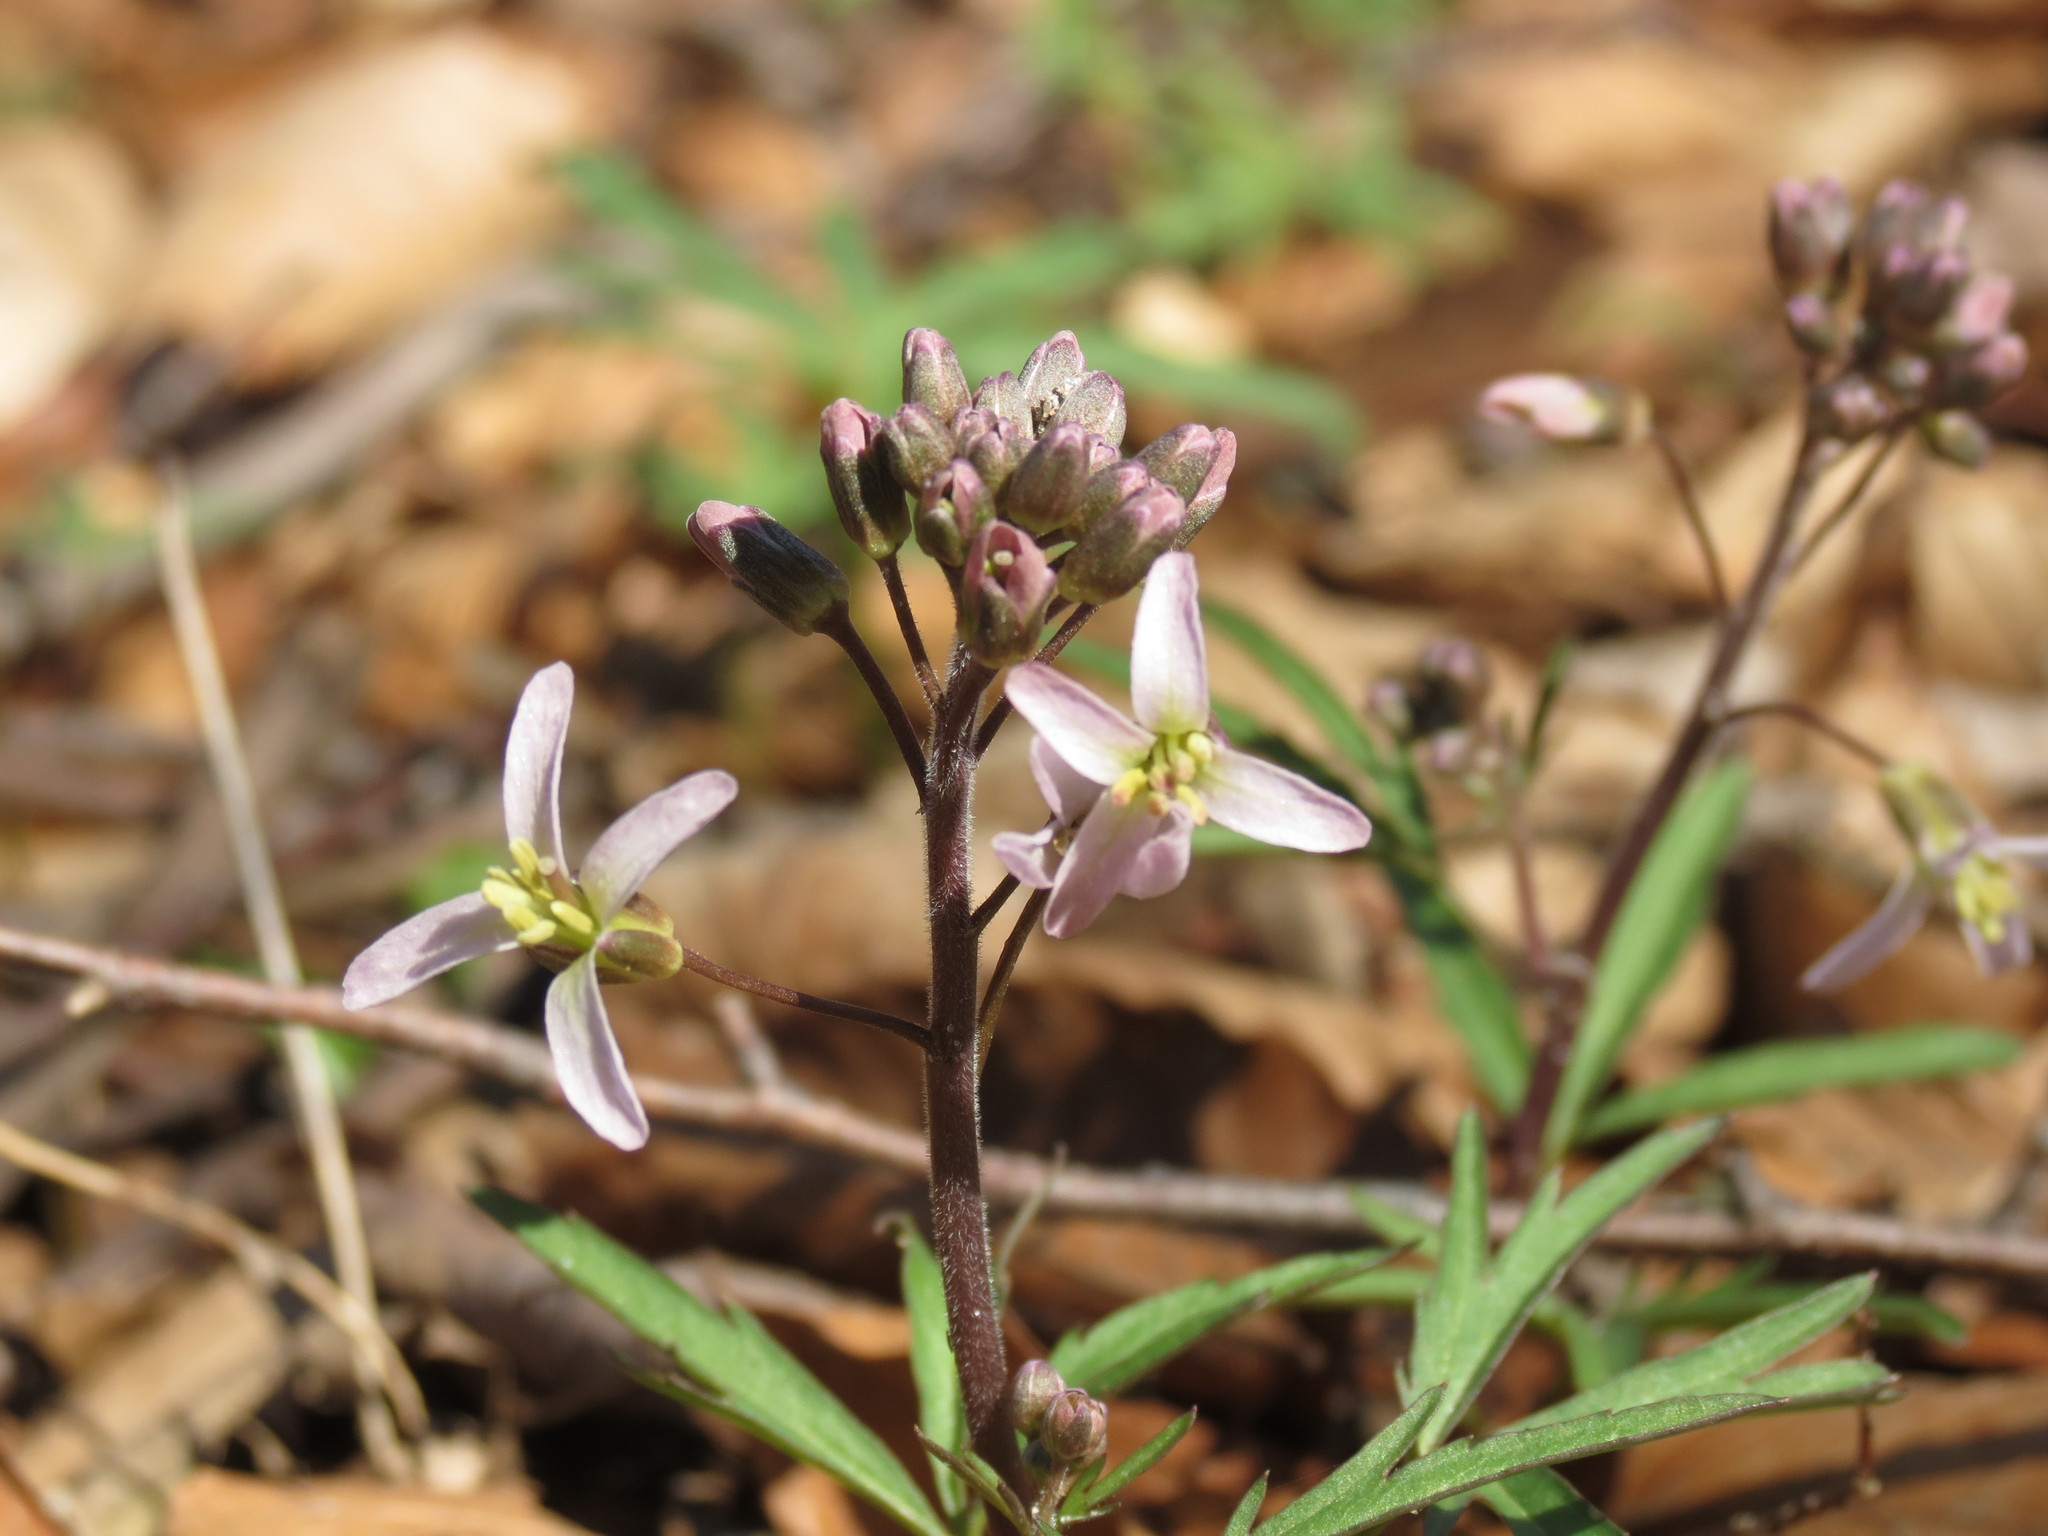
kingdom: Plantae
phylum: Tracheophyta
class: Magnoliopsida
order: Brassicales
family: Brassicaceae
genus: Cardamine
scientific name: Cardamine concatenata
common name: Cut-leaf toothcup
